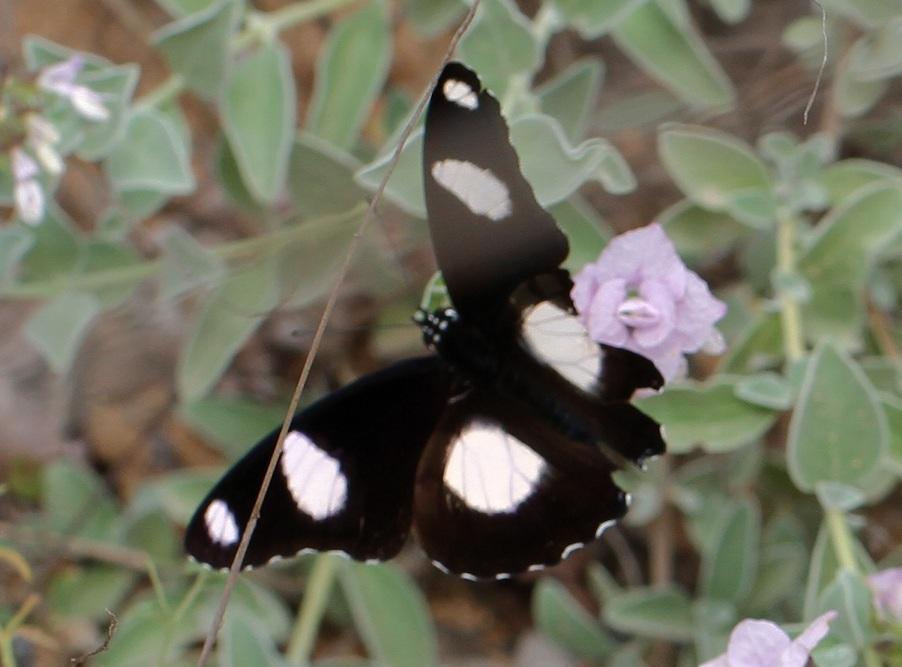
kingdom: Animalia
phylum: Arthropoda
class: Insecta
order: Lepidoptera
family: Nymphalidae
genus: Hypolimnas
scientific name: Hypolimnas misippus
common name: False plain tiger
